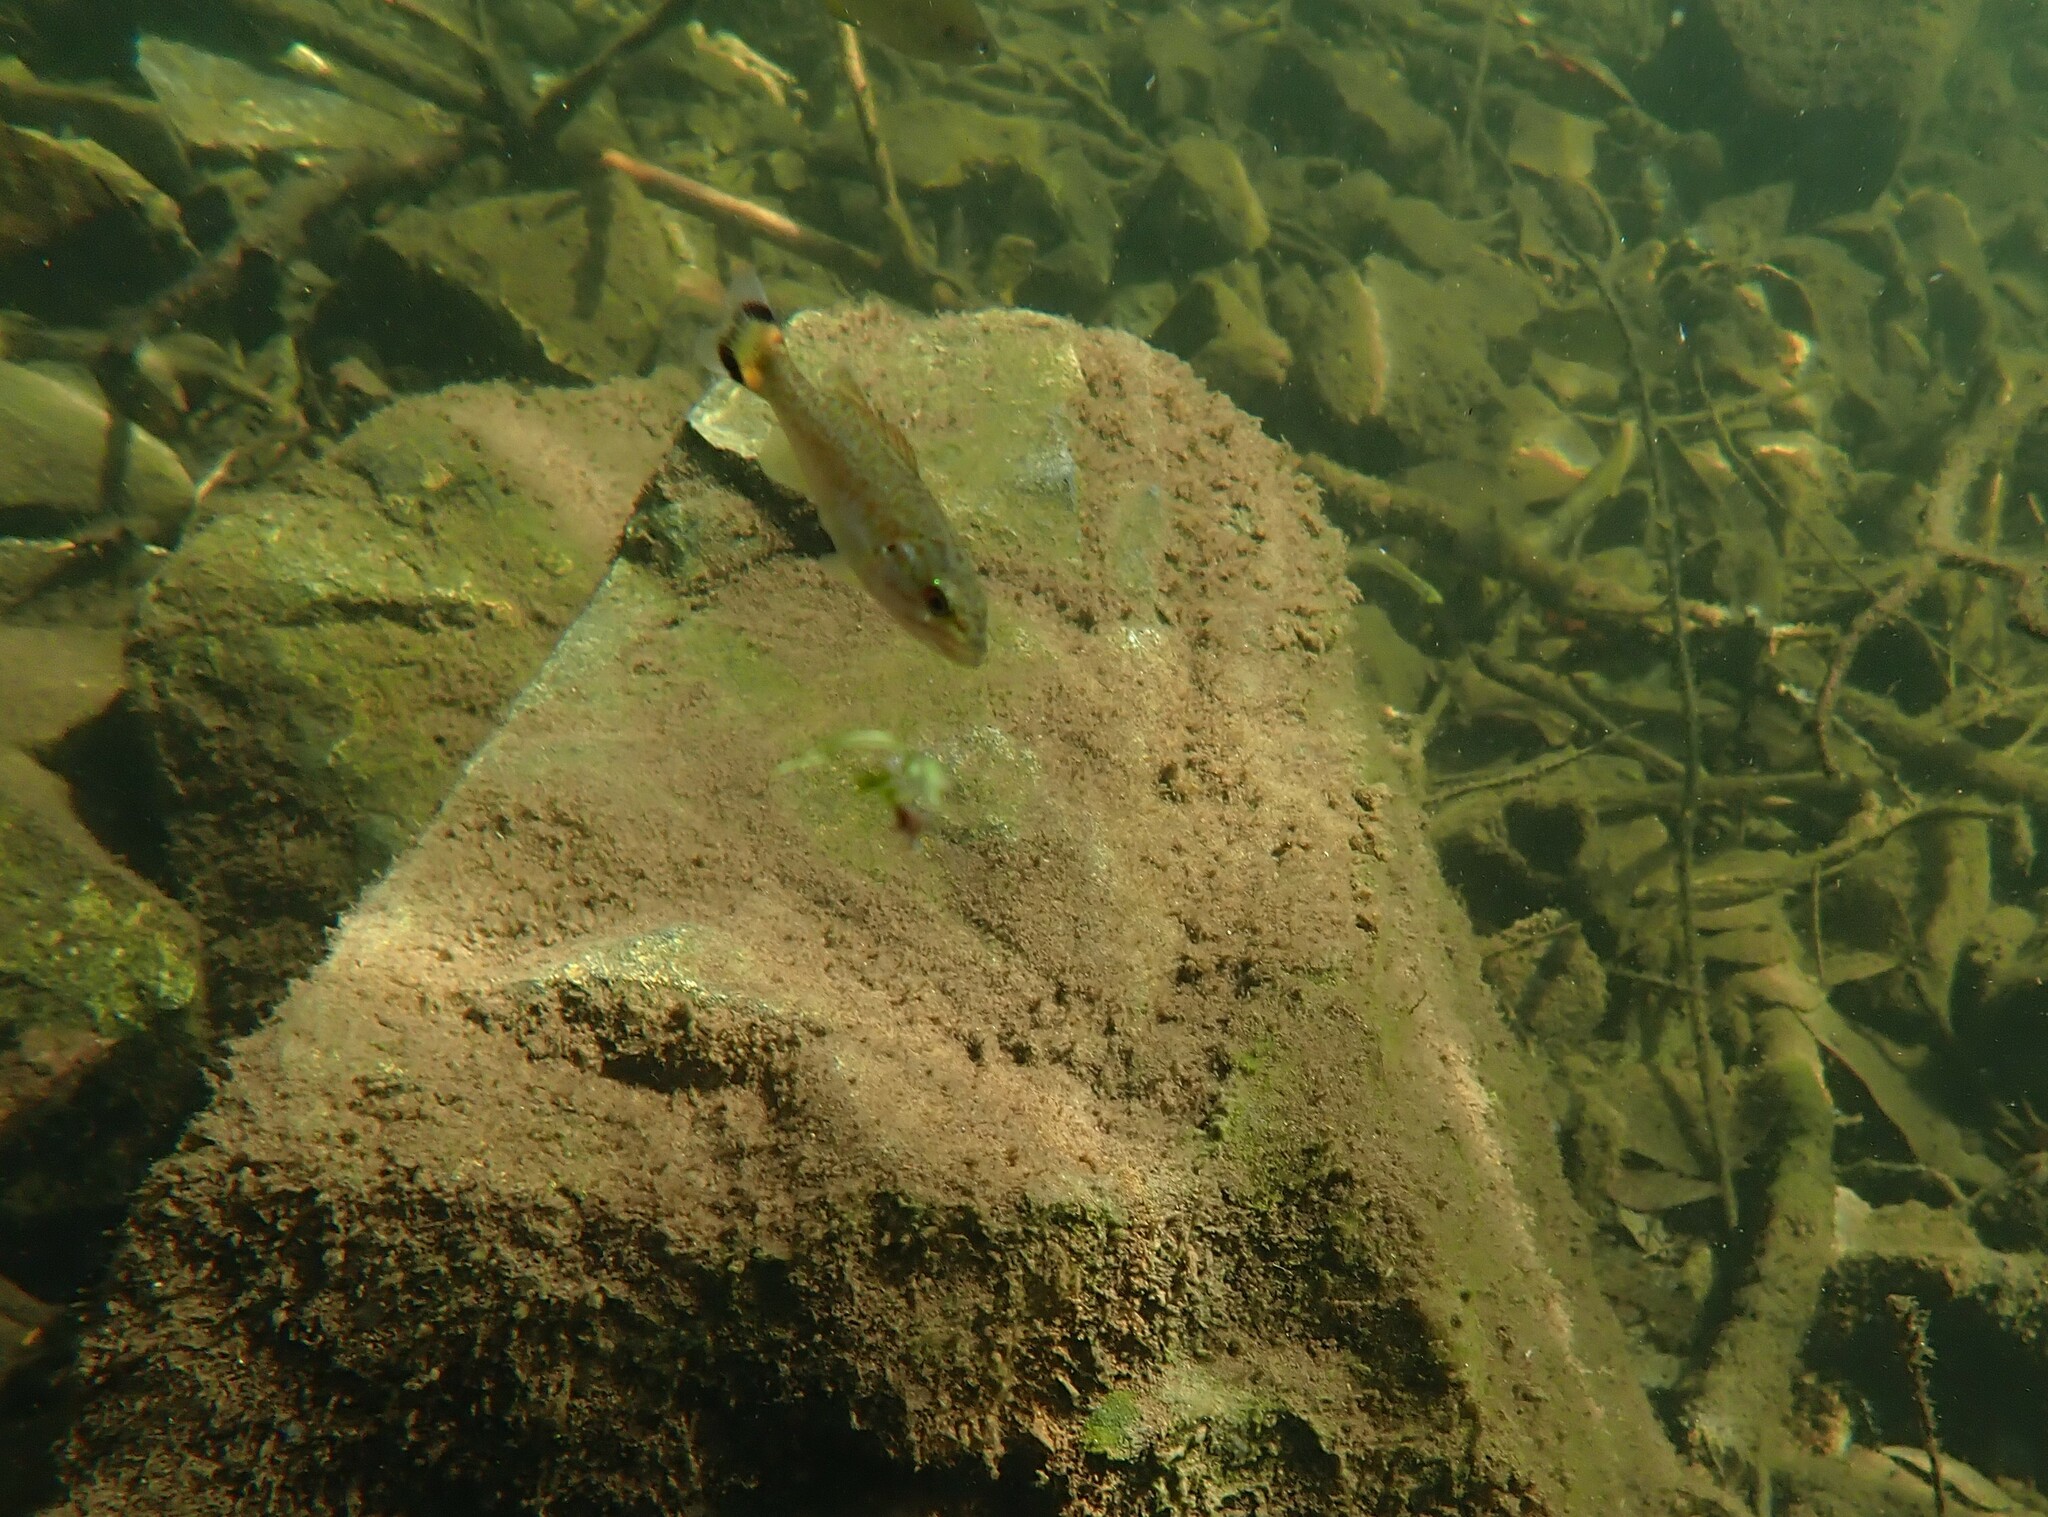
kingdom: Animalia
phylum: Chordata
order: Perciformes
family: Centrarchidae
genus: Micropterus
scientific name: Micropterus dolomieu
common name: Smallmouth bass
